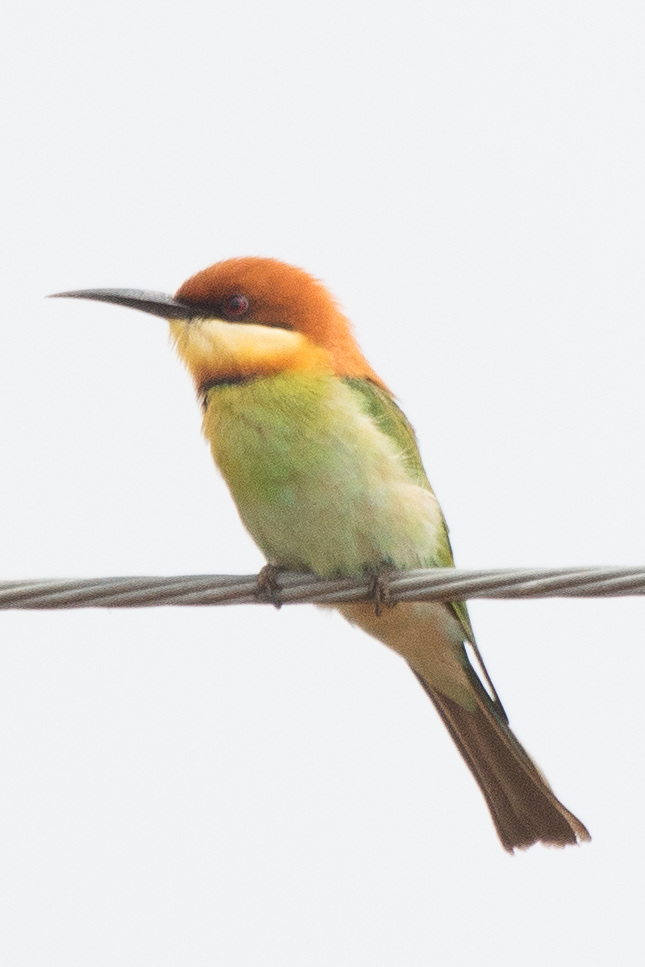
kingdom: Animalia
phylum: Chordata
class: Aves
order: Coraciiformes
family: Meropidae
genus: Merops
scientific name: Merops leschenaulti
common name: Chestnut-headed bee-eater
